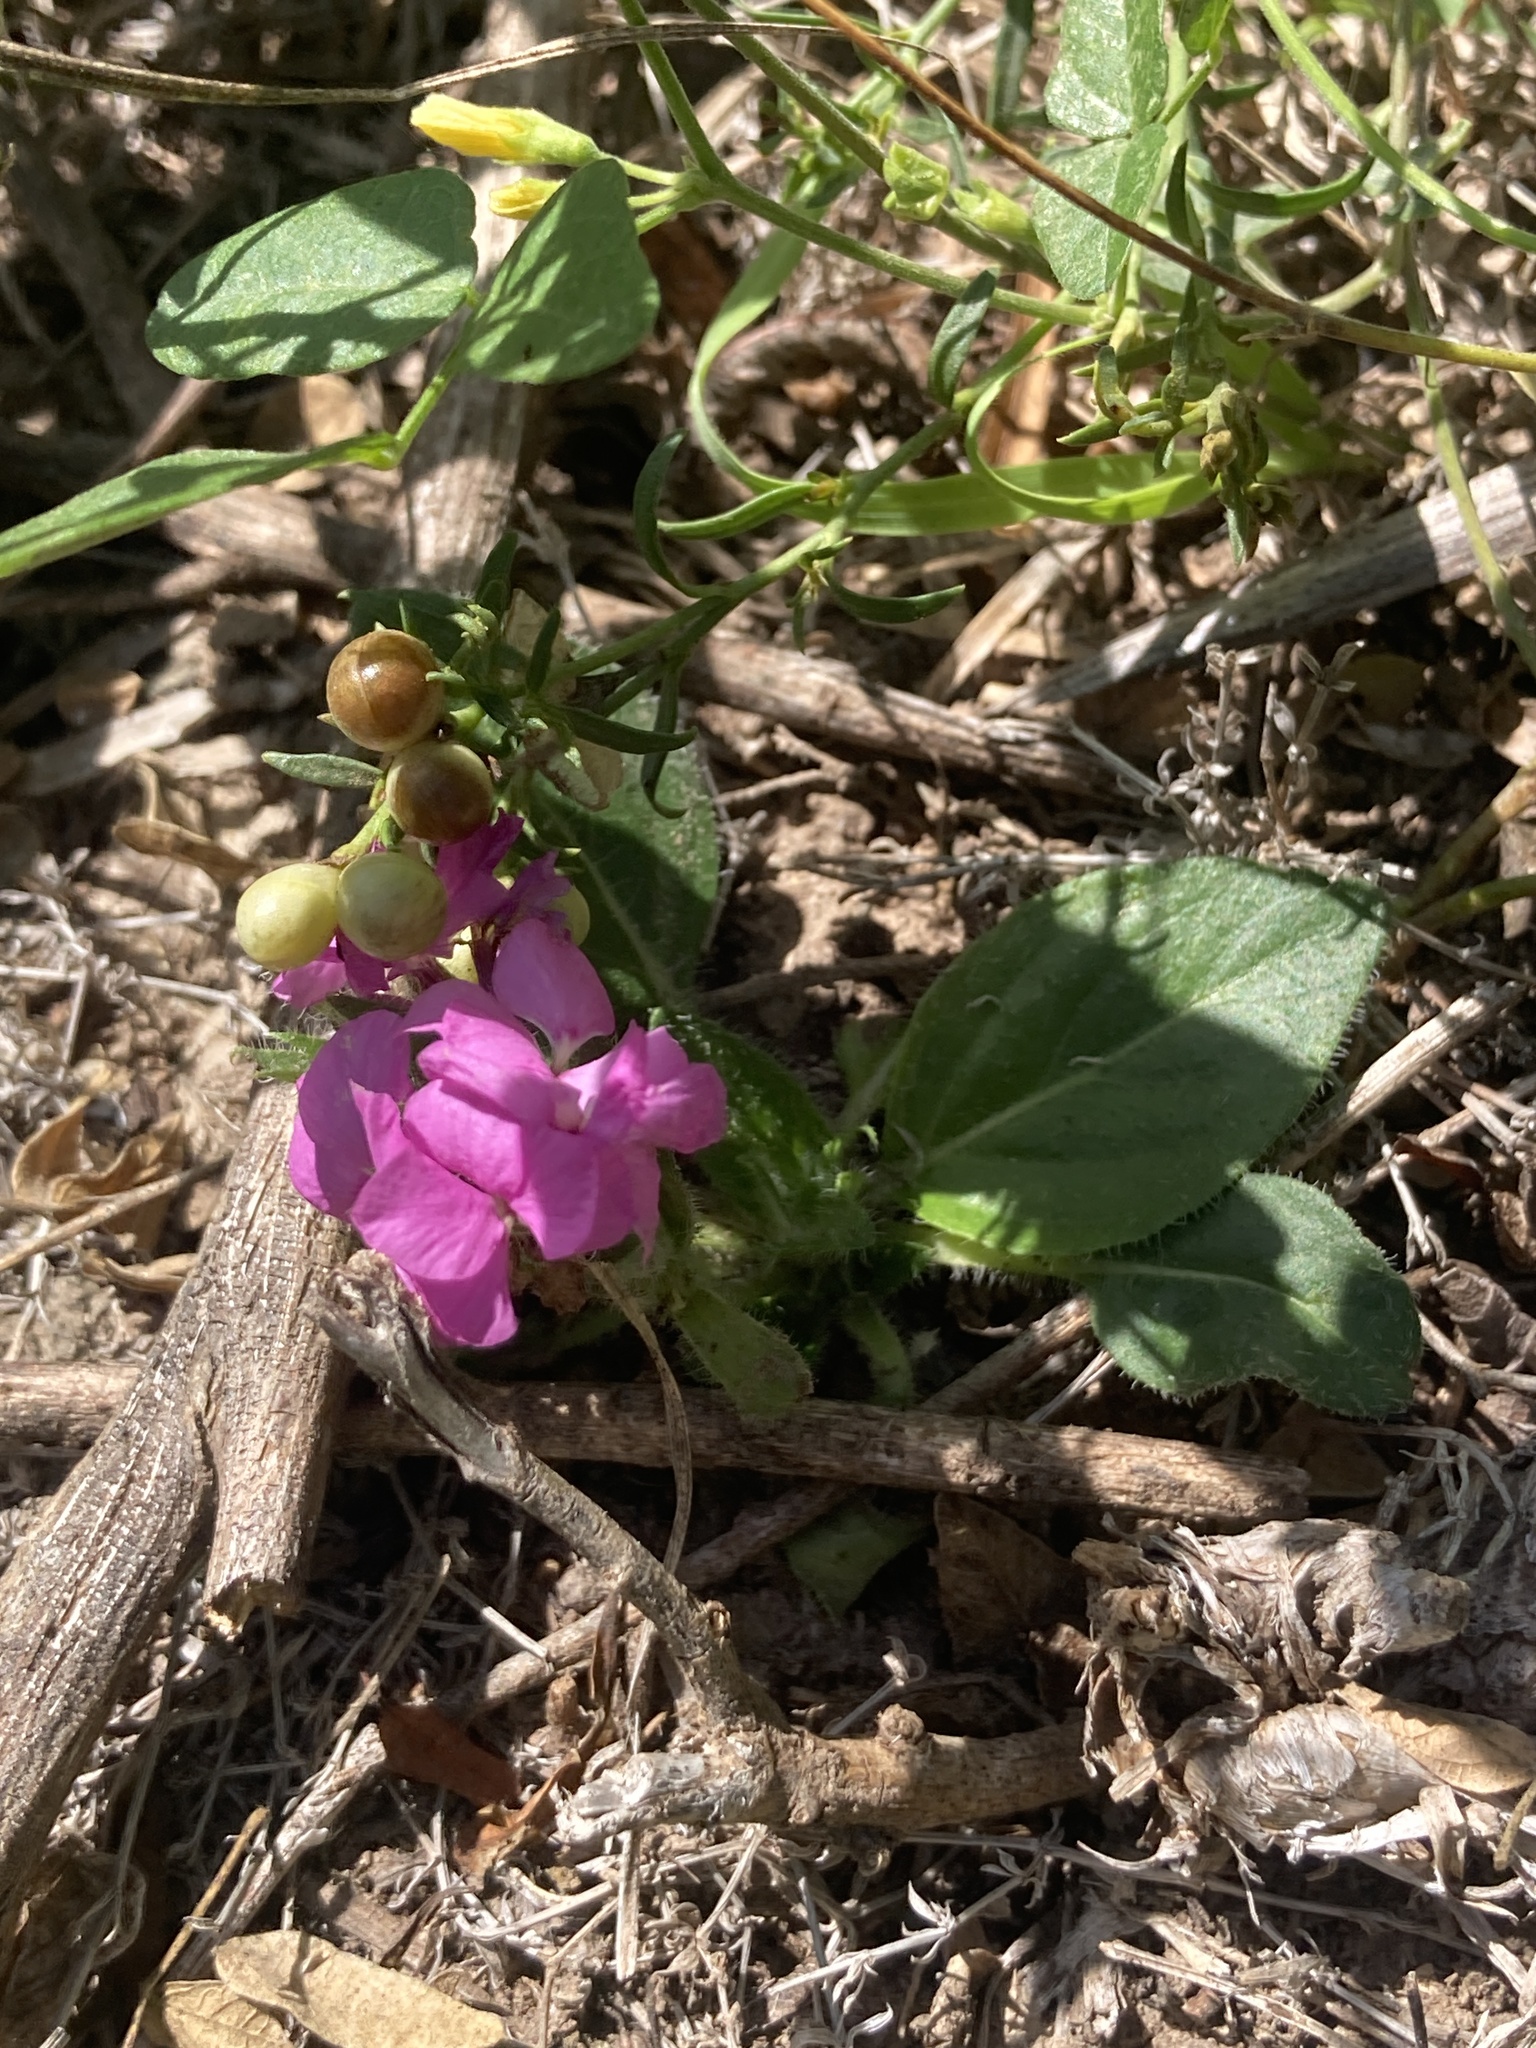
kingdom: Plantae
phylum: Tracheophyta
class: Magnoliopsida
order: Lamiales
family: Acanthaceae
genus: Stenandrium
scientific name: Stenandrium dulce
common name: Pinklet
